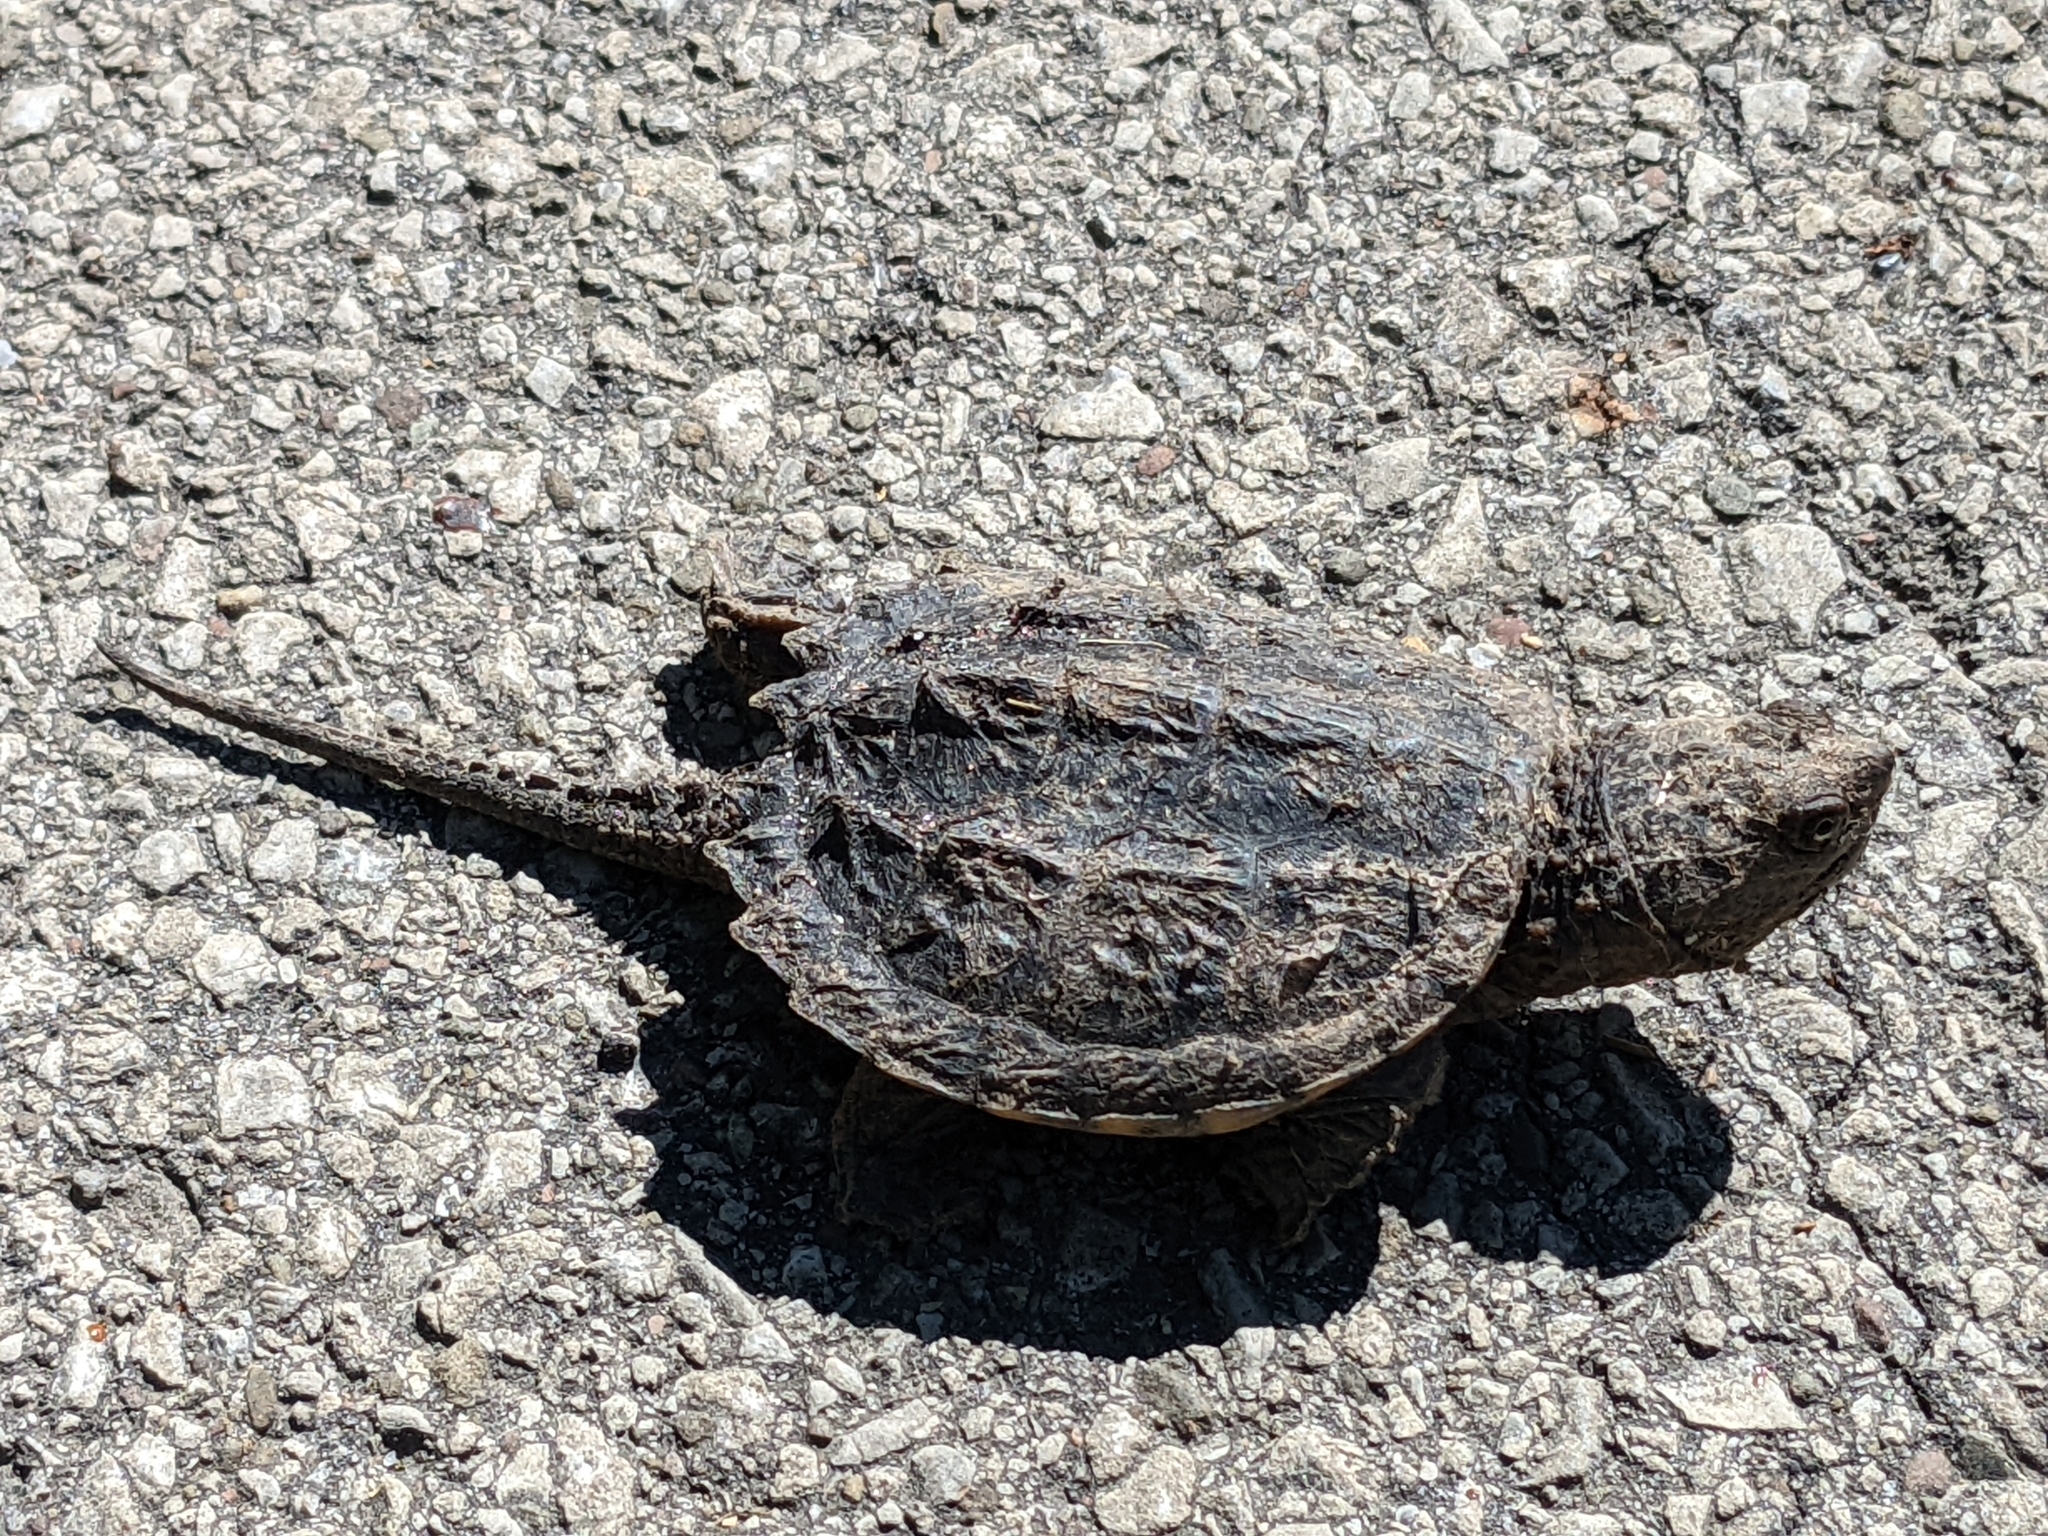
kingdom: Animalia
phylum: Chordata
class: Testudines
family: Chelydridae
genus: Chelydra
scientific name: Chelydra serpentina
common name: Common snapping turtle
